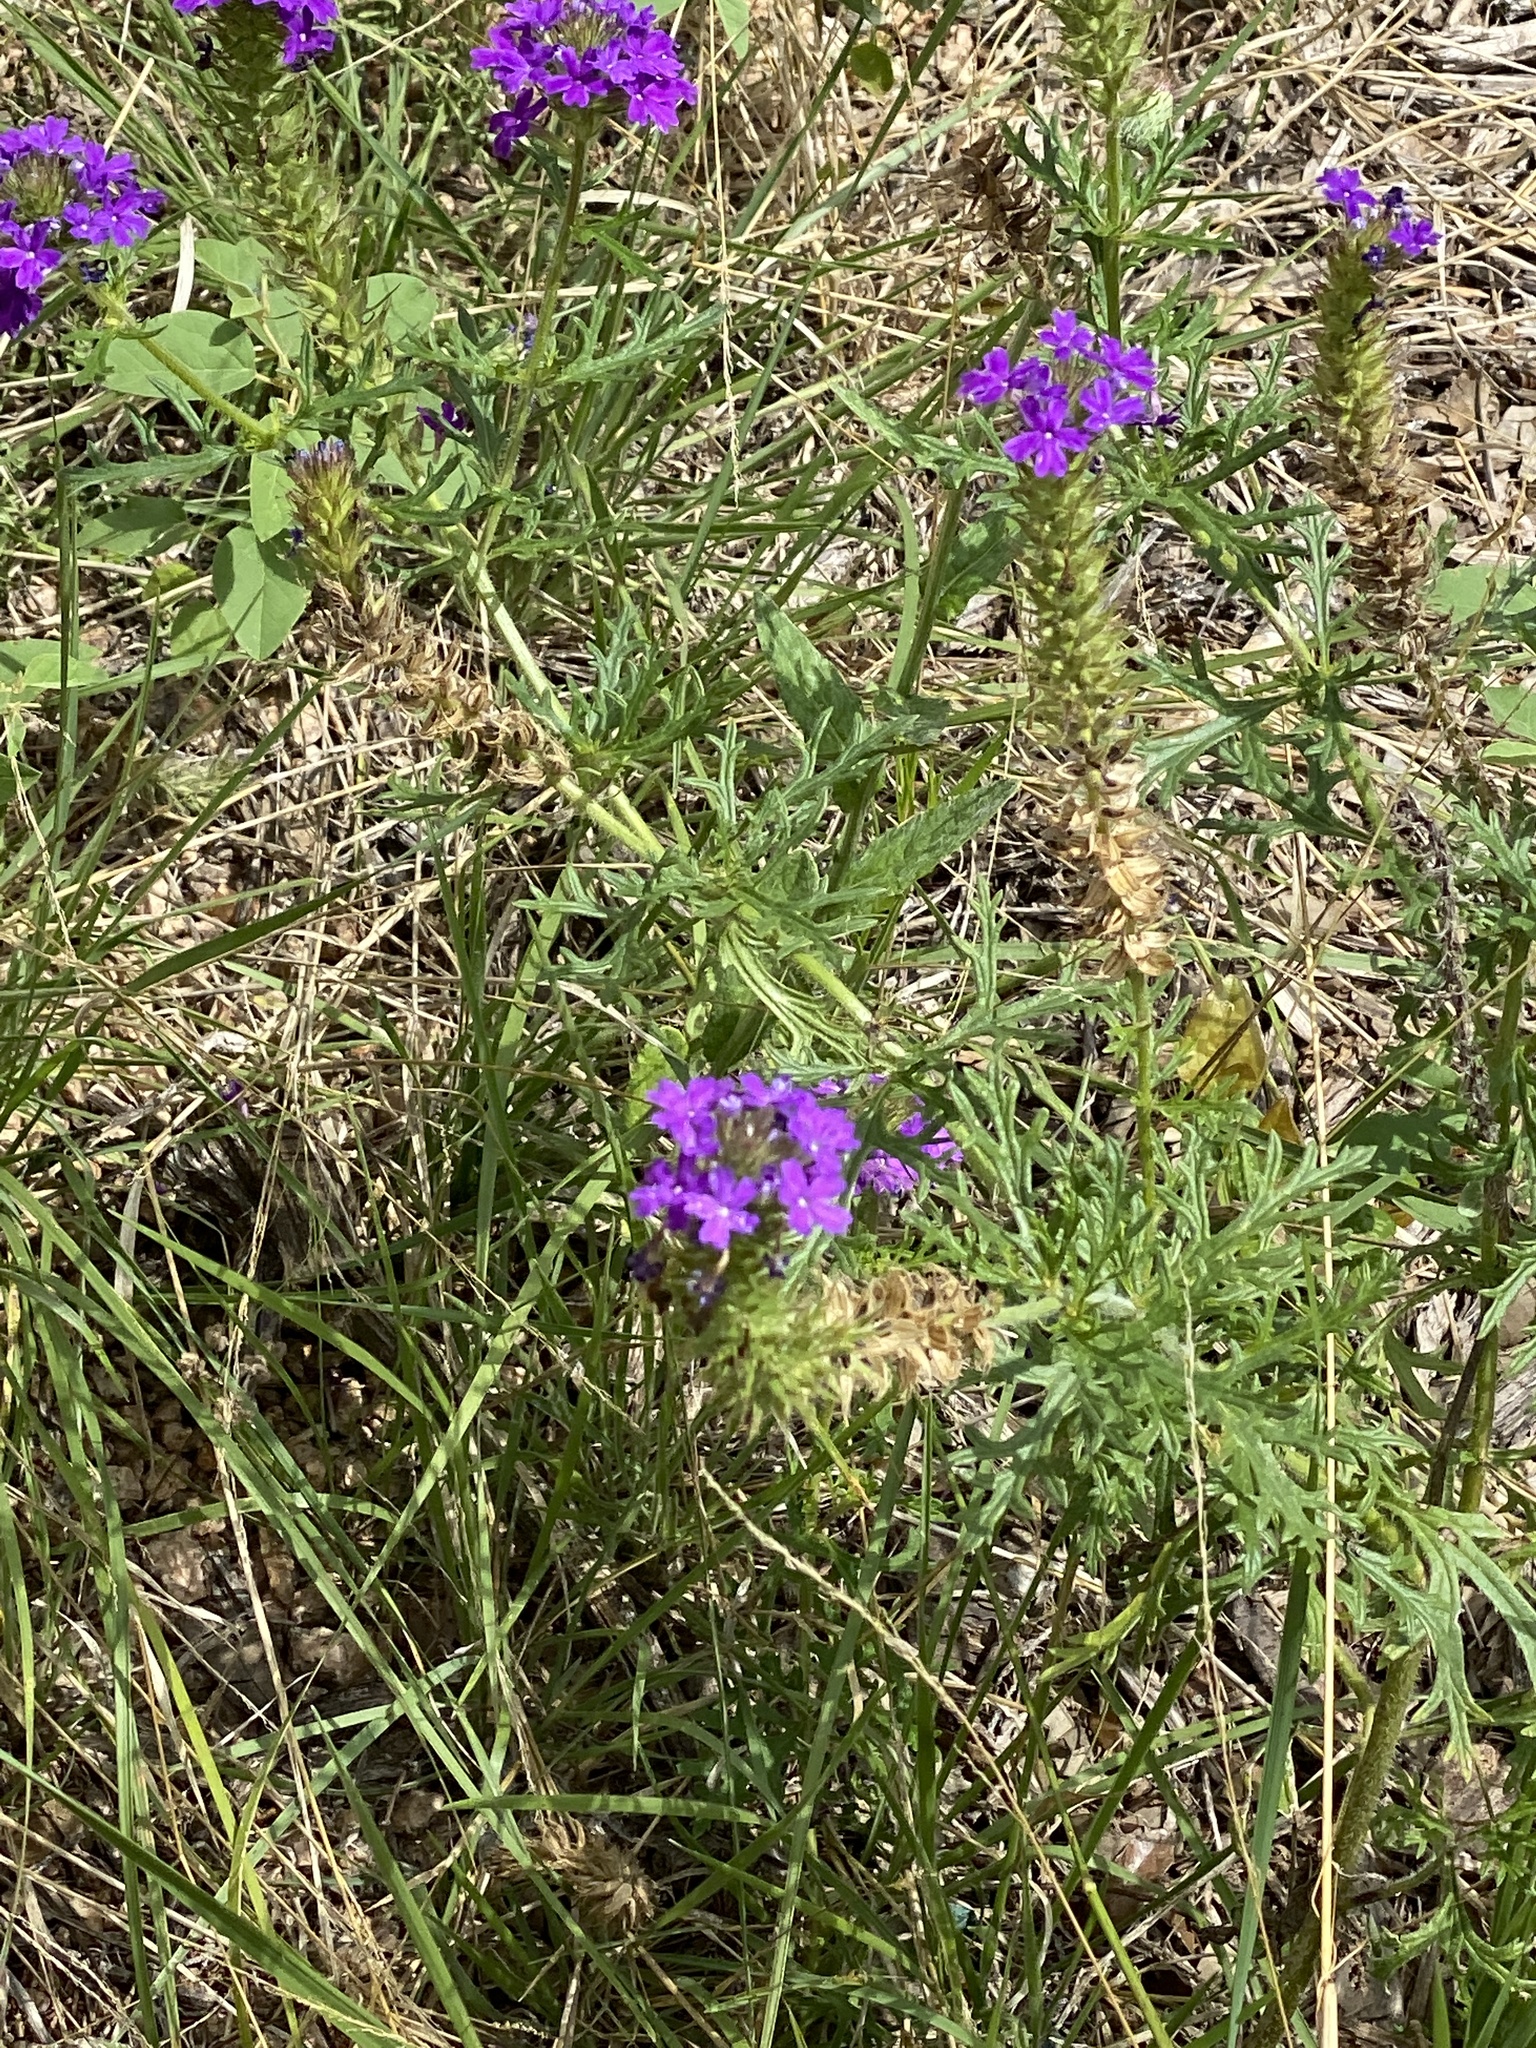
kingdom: Plantae
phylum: Tracheophyta
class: Magnoliopsida
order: Lamiales
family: Verbenaceae
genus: Verbena
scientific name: Verbena bipinnatifida
